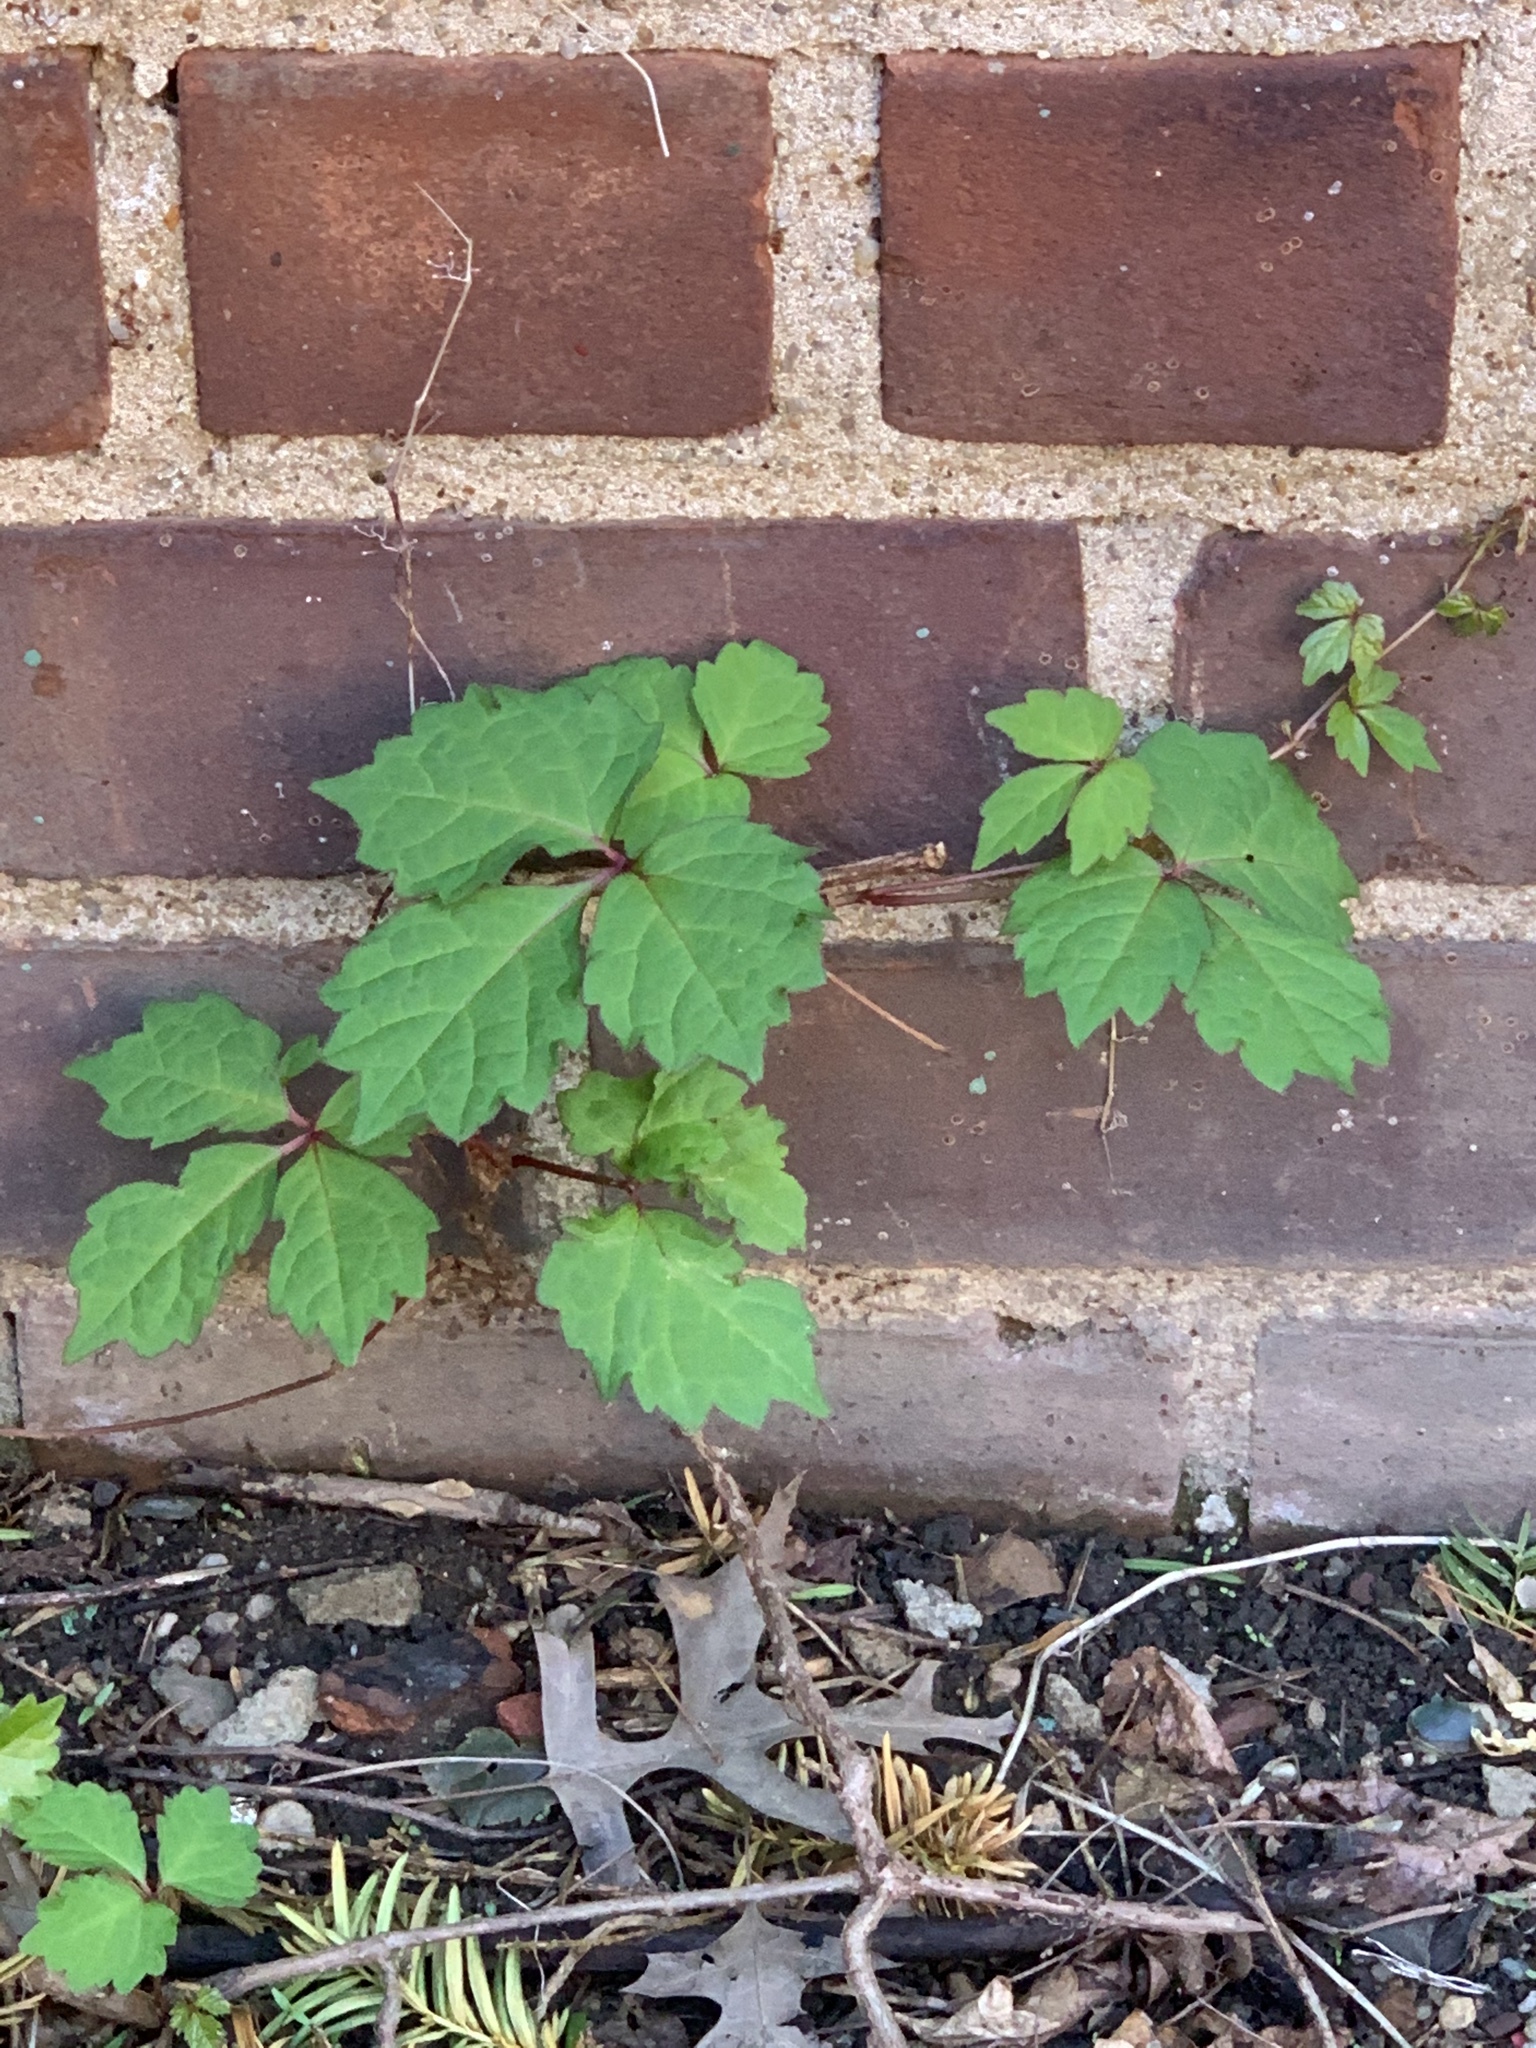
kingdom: Plantae
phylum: Tracheophyta
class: Magnoliopsida
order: Vitales
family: Vitaceae
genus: Parthenocissus
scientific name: Parthenocissus tricuspidata
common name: Boston ivy
